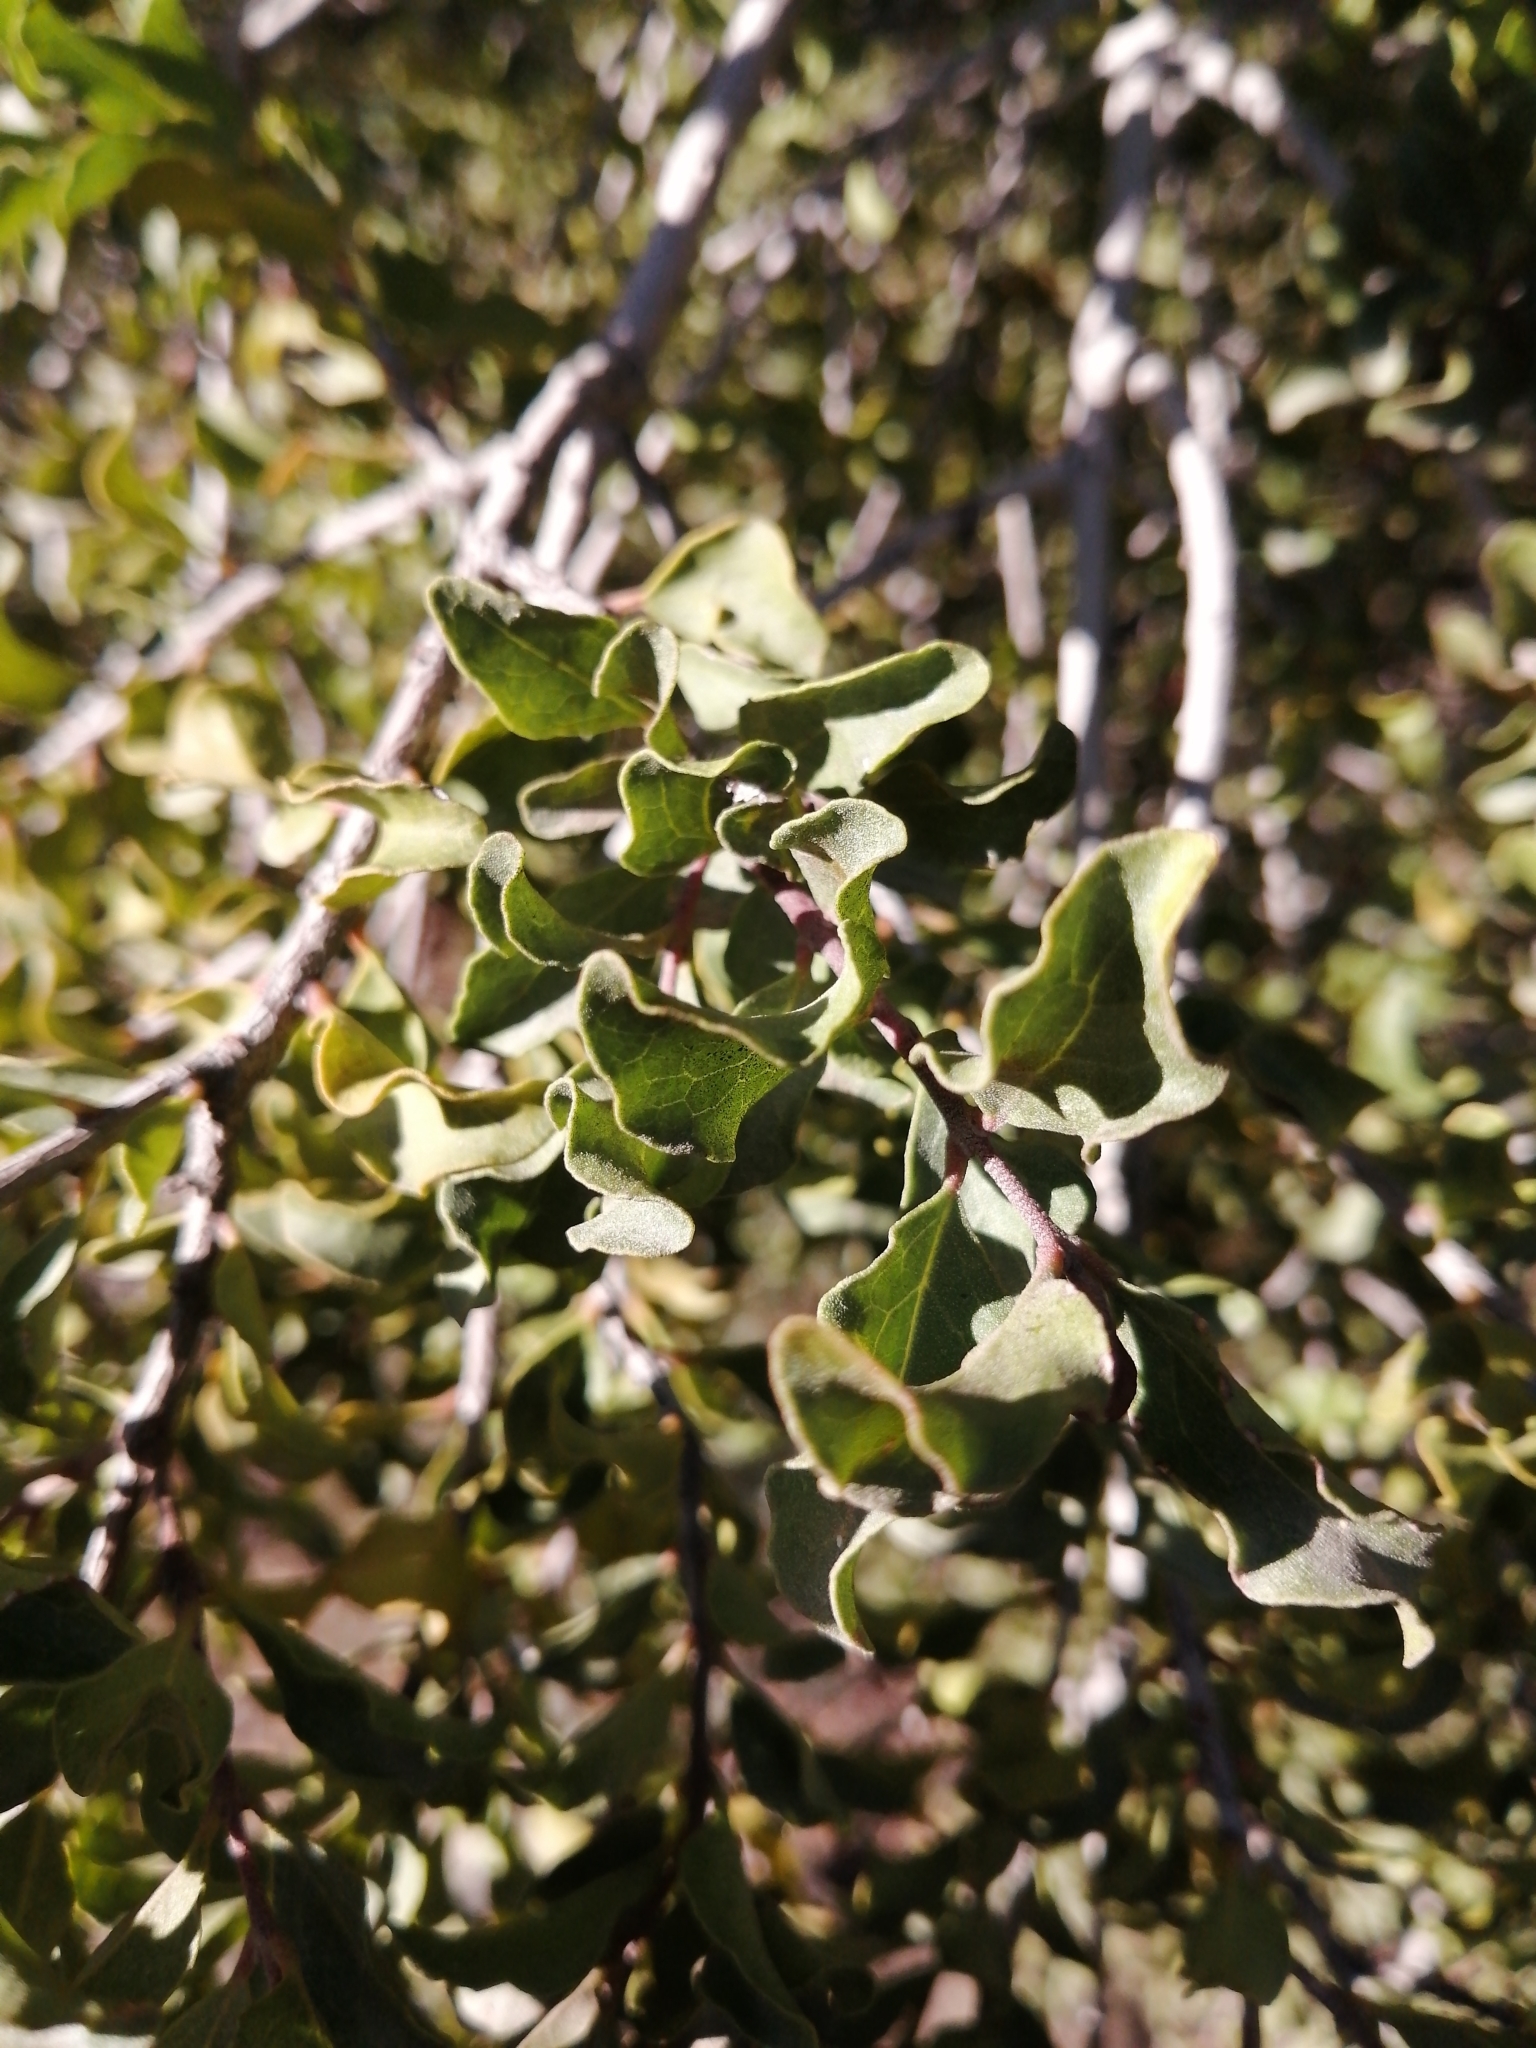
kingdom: Plantae
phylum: Tracheophyta
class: Magnoliopsida
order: Ericales
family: Ebenaceae
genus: Euclea
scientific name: Euclea undulata
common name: Small-leaved guarri
